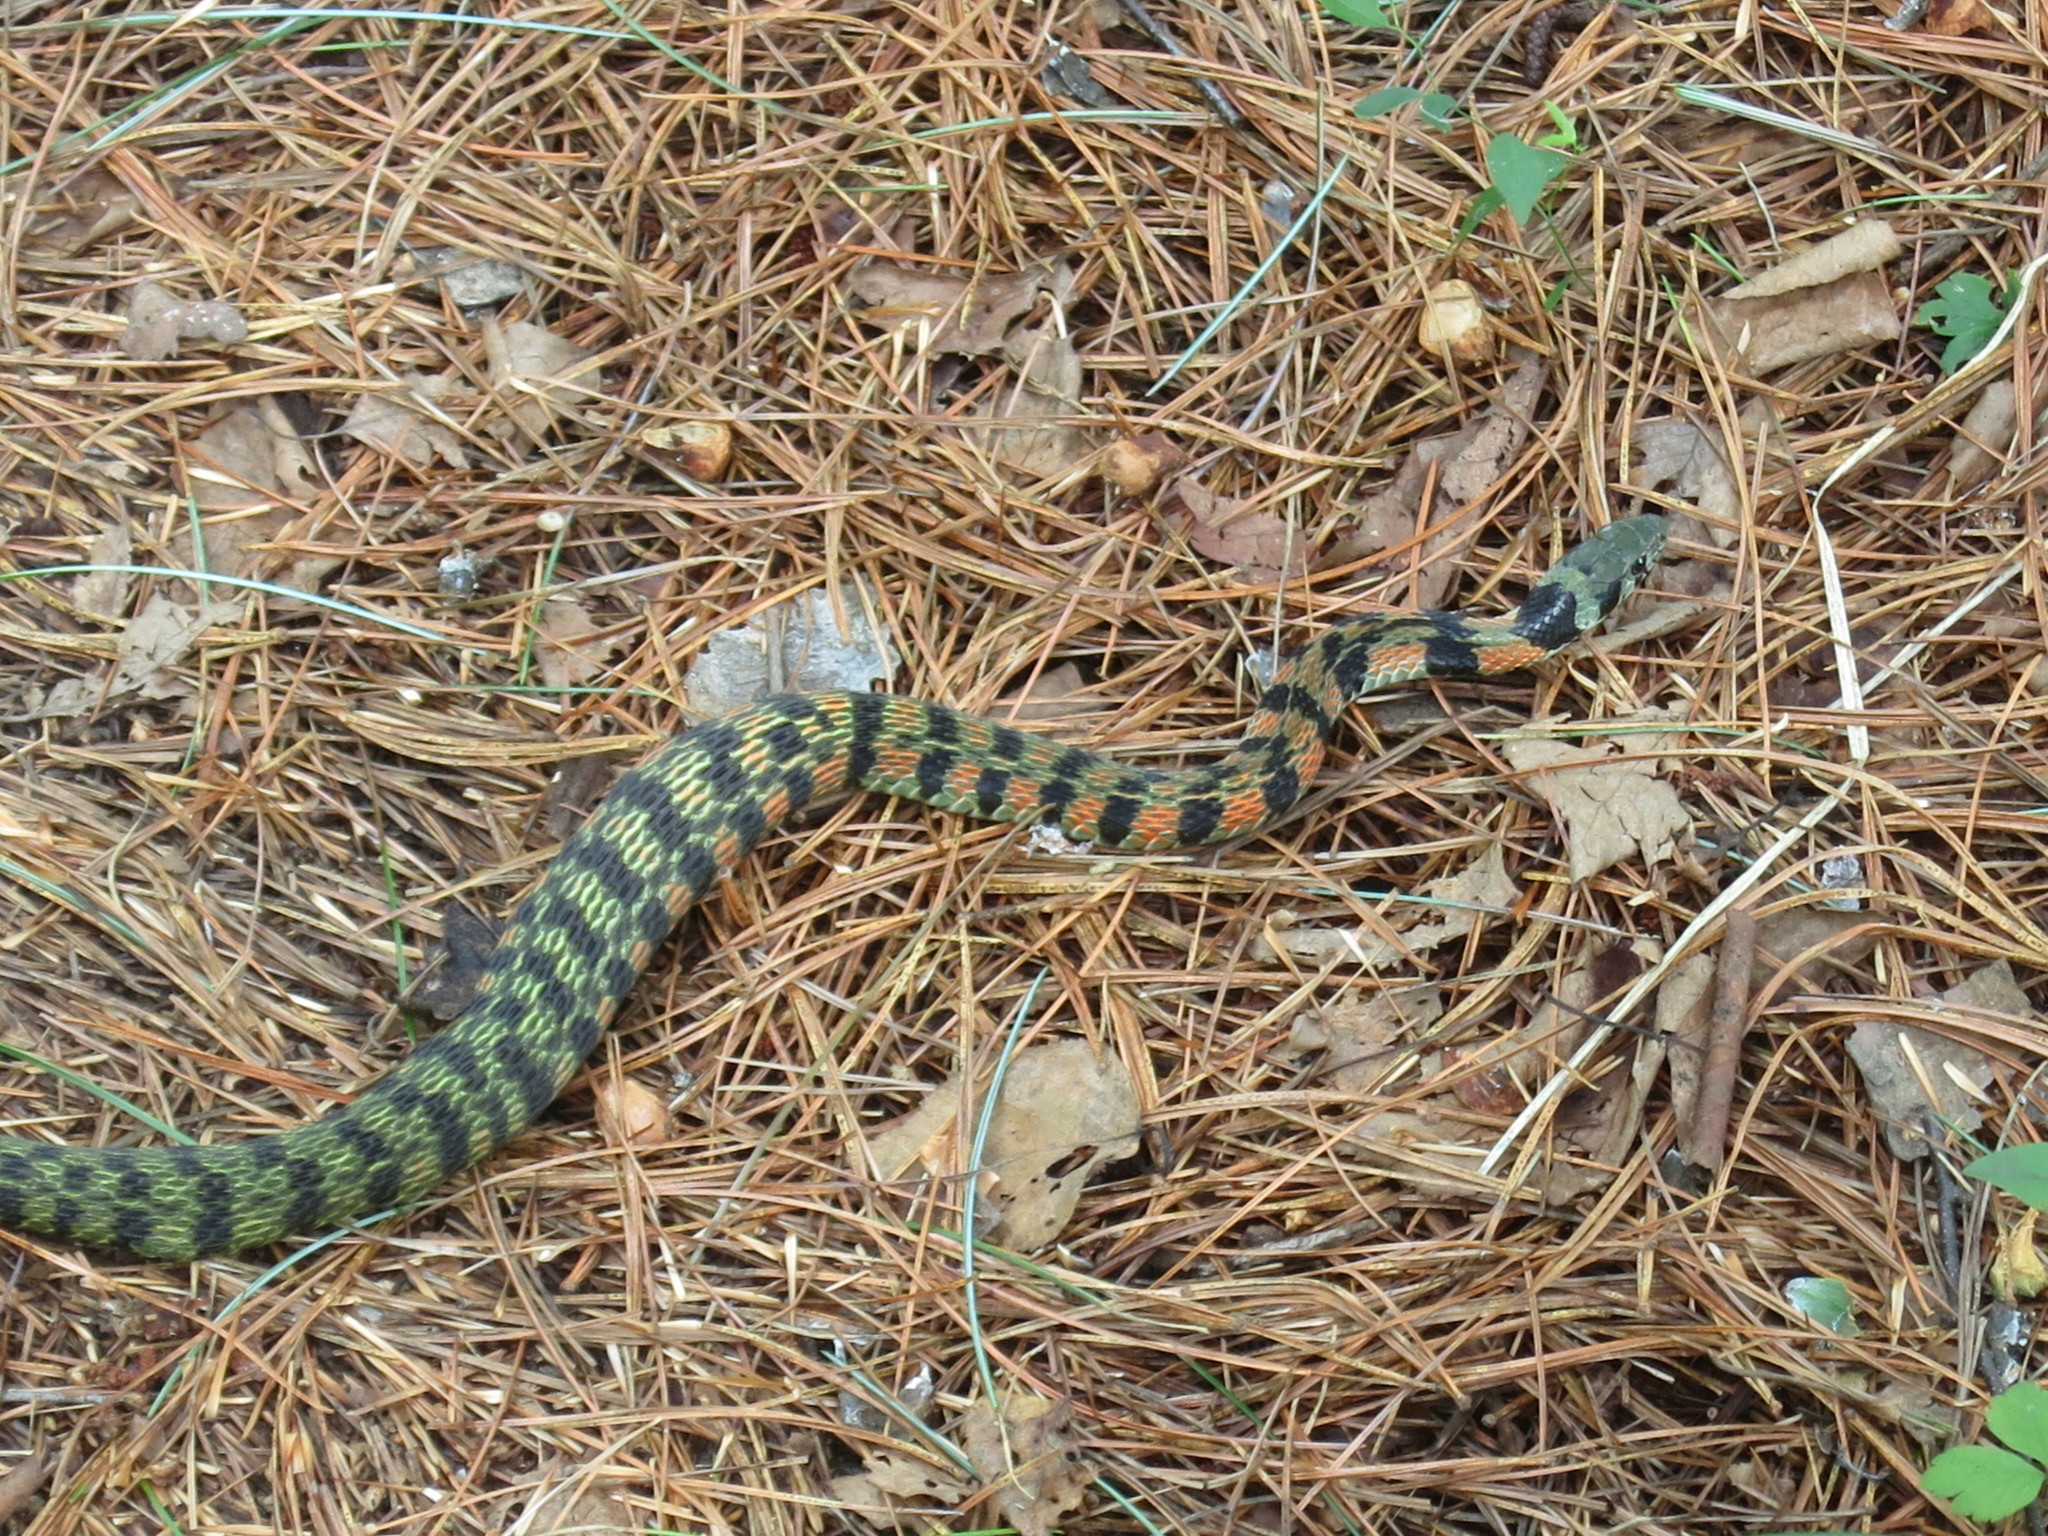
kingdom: Animalia
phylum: Chordata
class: Squamata
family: Colubridae
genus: Rhabdophis
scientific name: Rhabdophis tigrinus
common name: Tiger keelback
